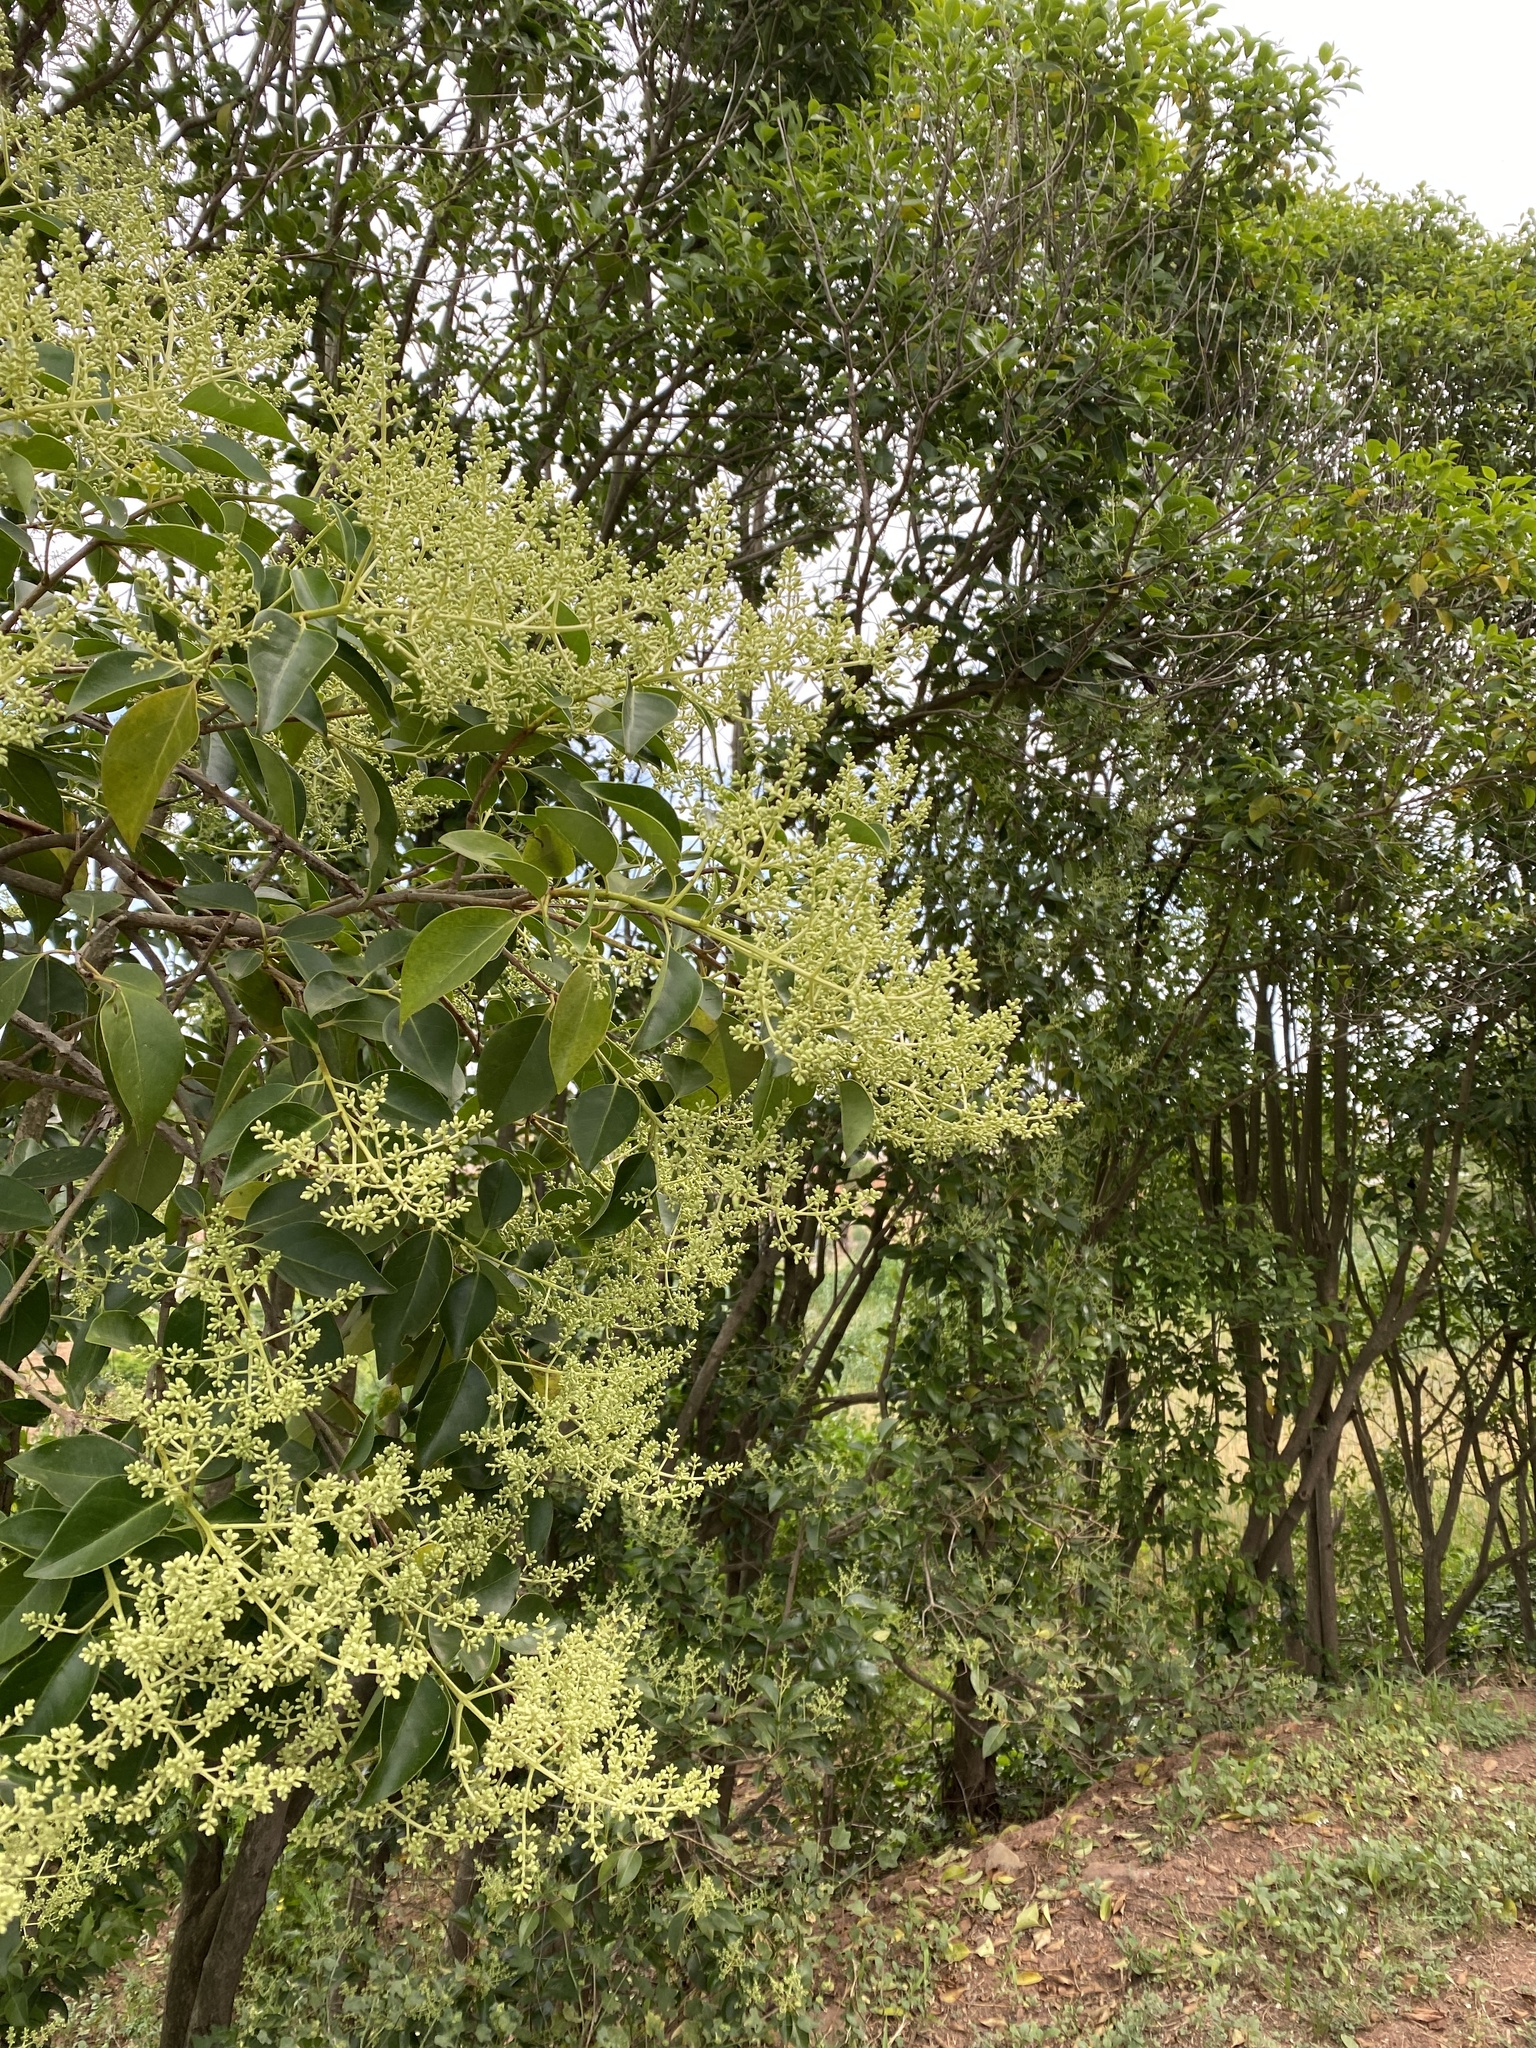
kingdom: Plantae
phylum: Tracheophyta
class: Magnoliopsida
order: Lamiales
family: Oleaceae
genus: Ligustrum
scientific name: Ligustrum lucidum
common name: Glossy privet
